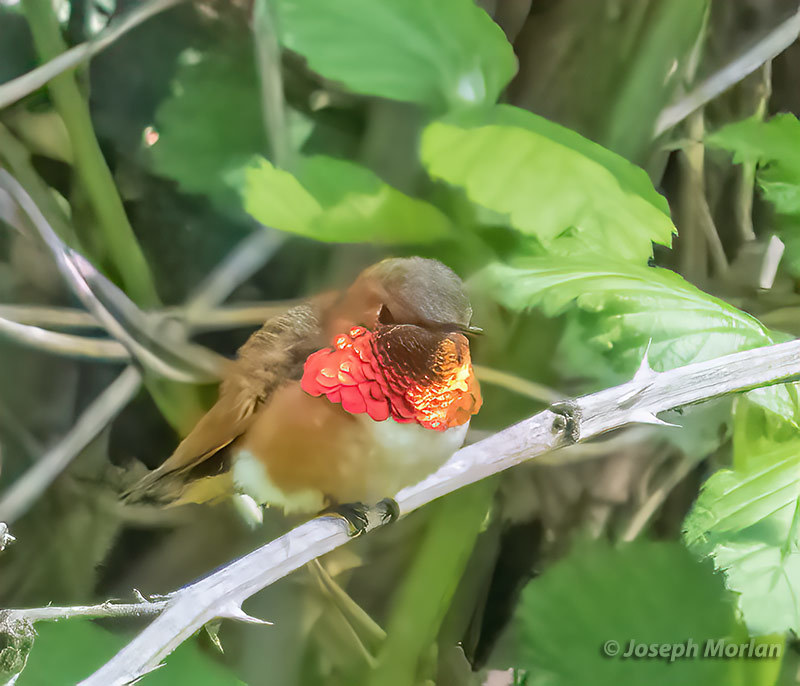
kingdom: Animalia
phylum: Chordata
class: Aves
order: Apodiformes
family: Trochilidae
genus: Selasphorus
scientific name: Selasphorus sasin
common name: Allen's hummingbird
